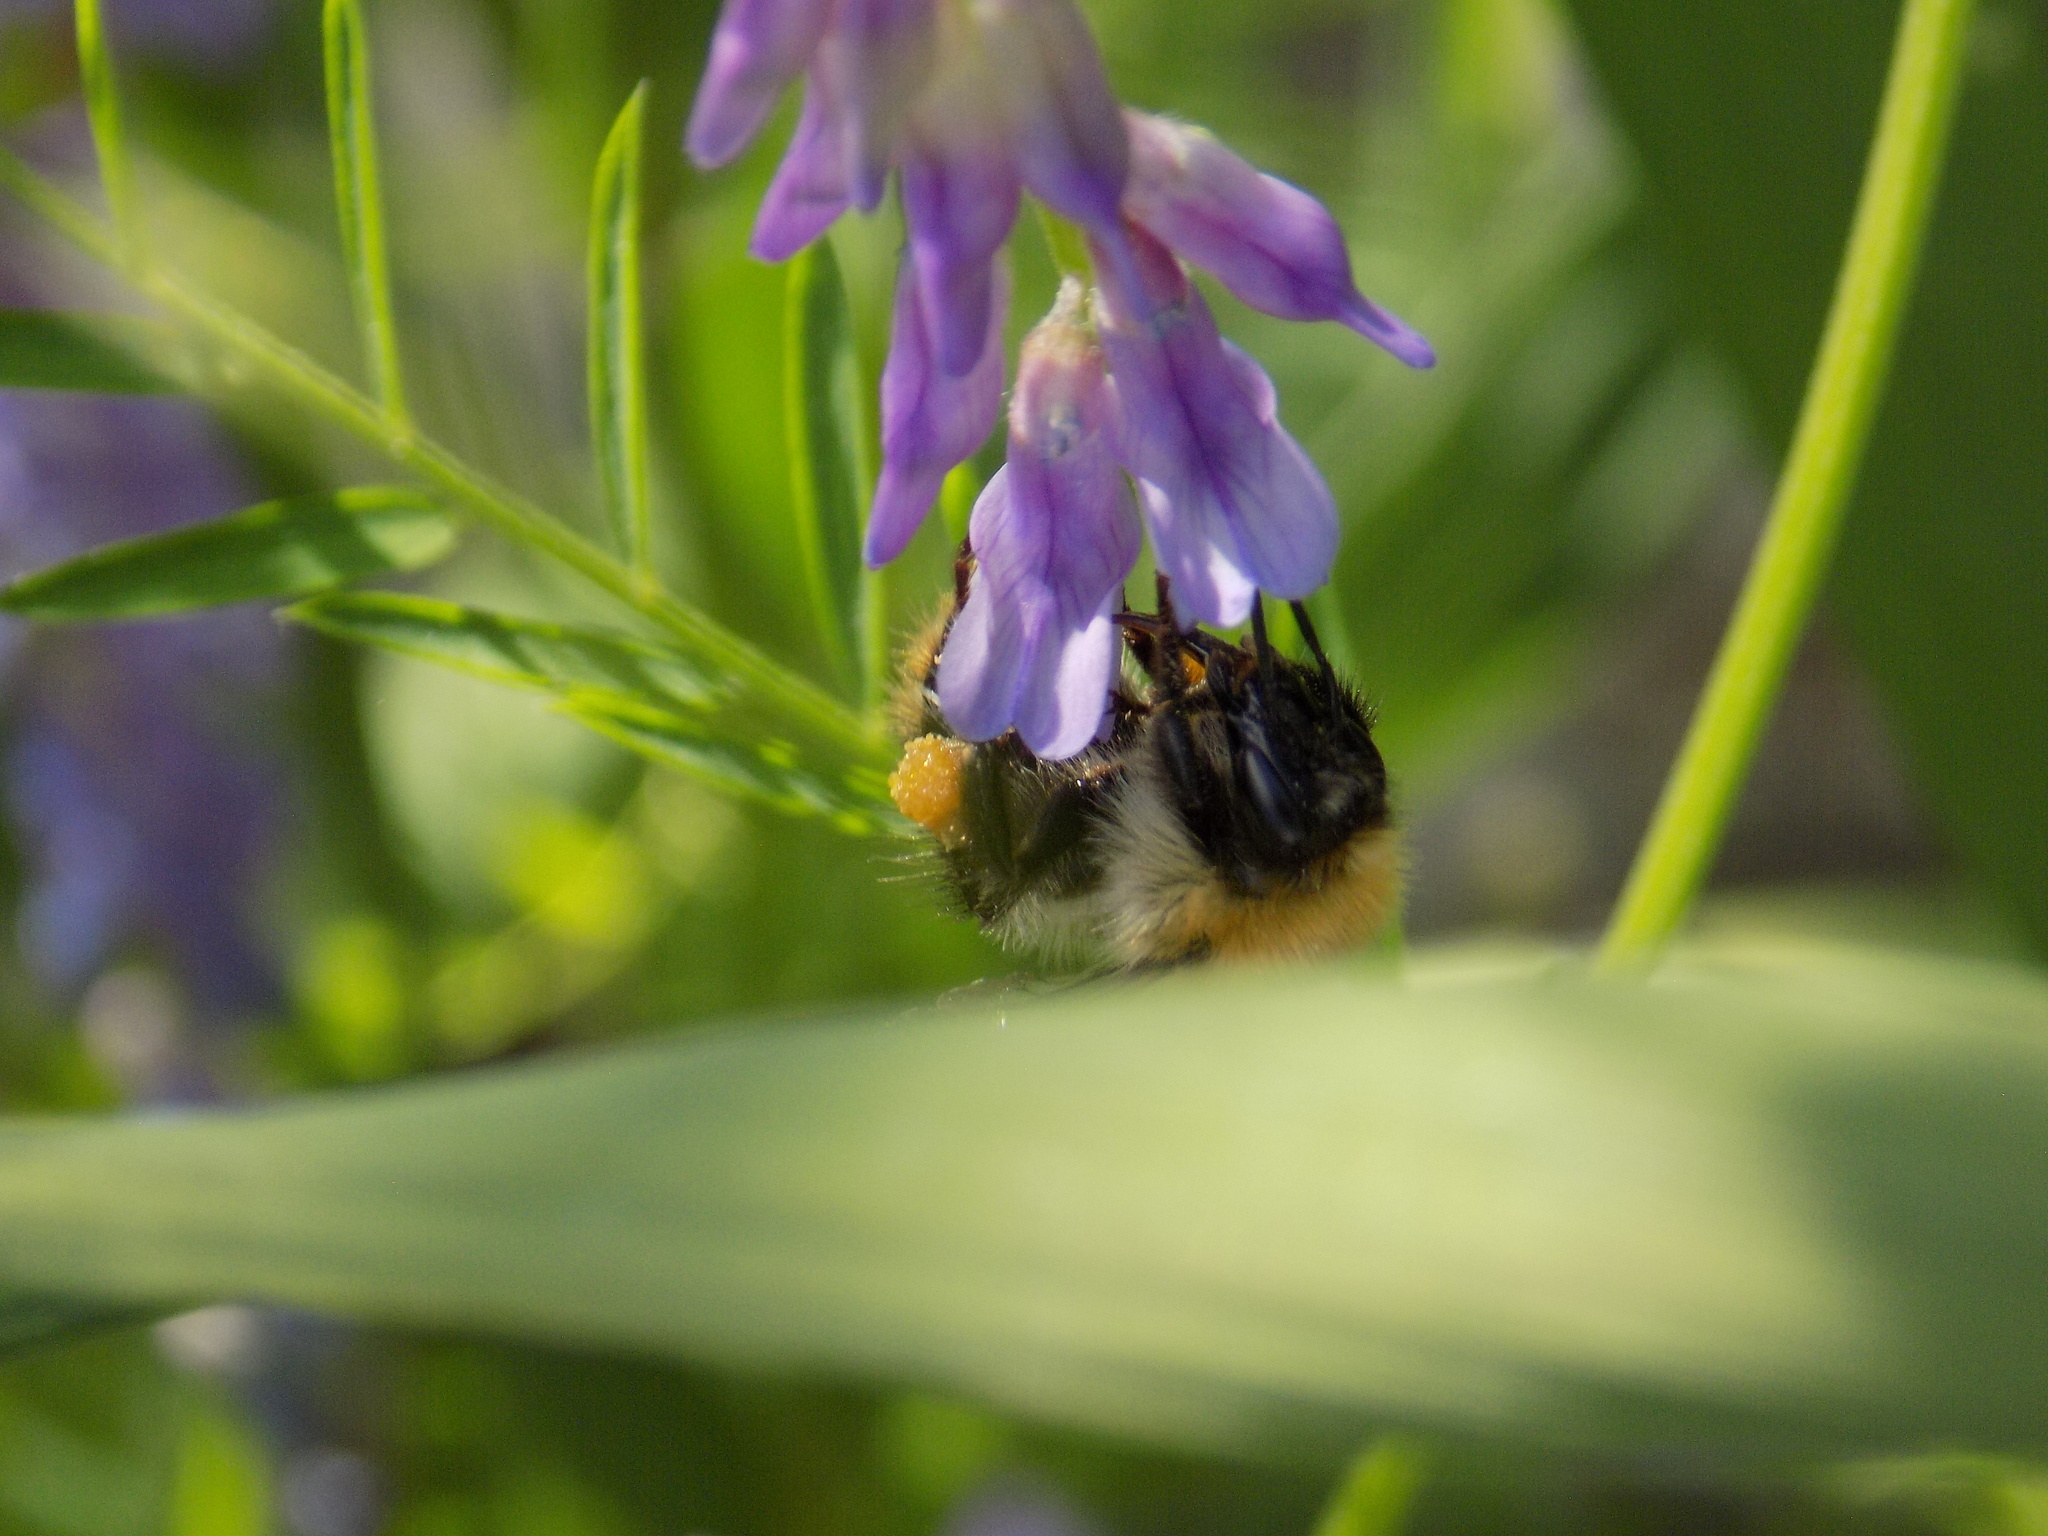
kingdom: Animalia
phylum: Arthropoda
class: Insecta
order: Hymenoptera
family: Apidae
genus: Bombus
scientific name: Bombus pascuorum
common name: Common carder bee
